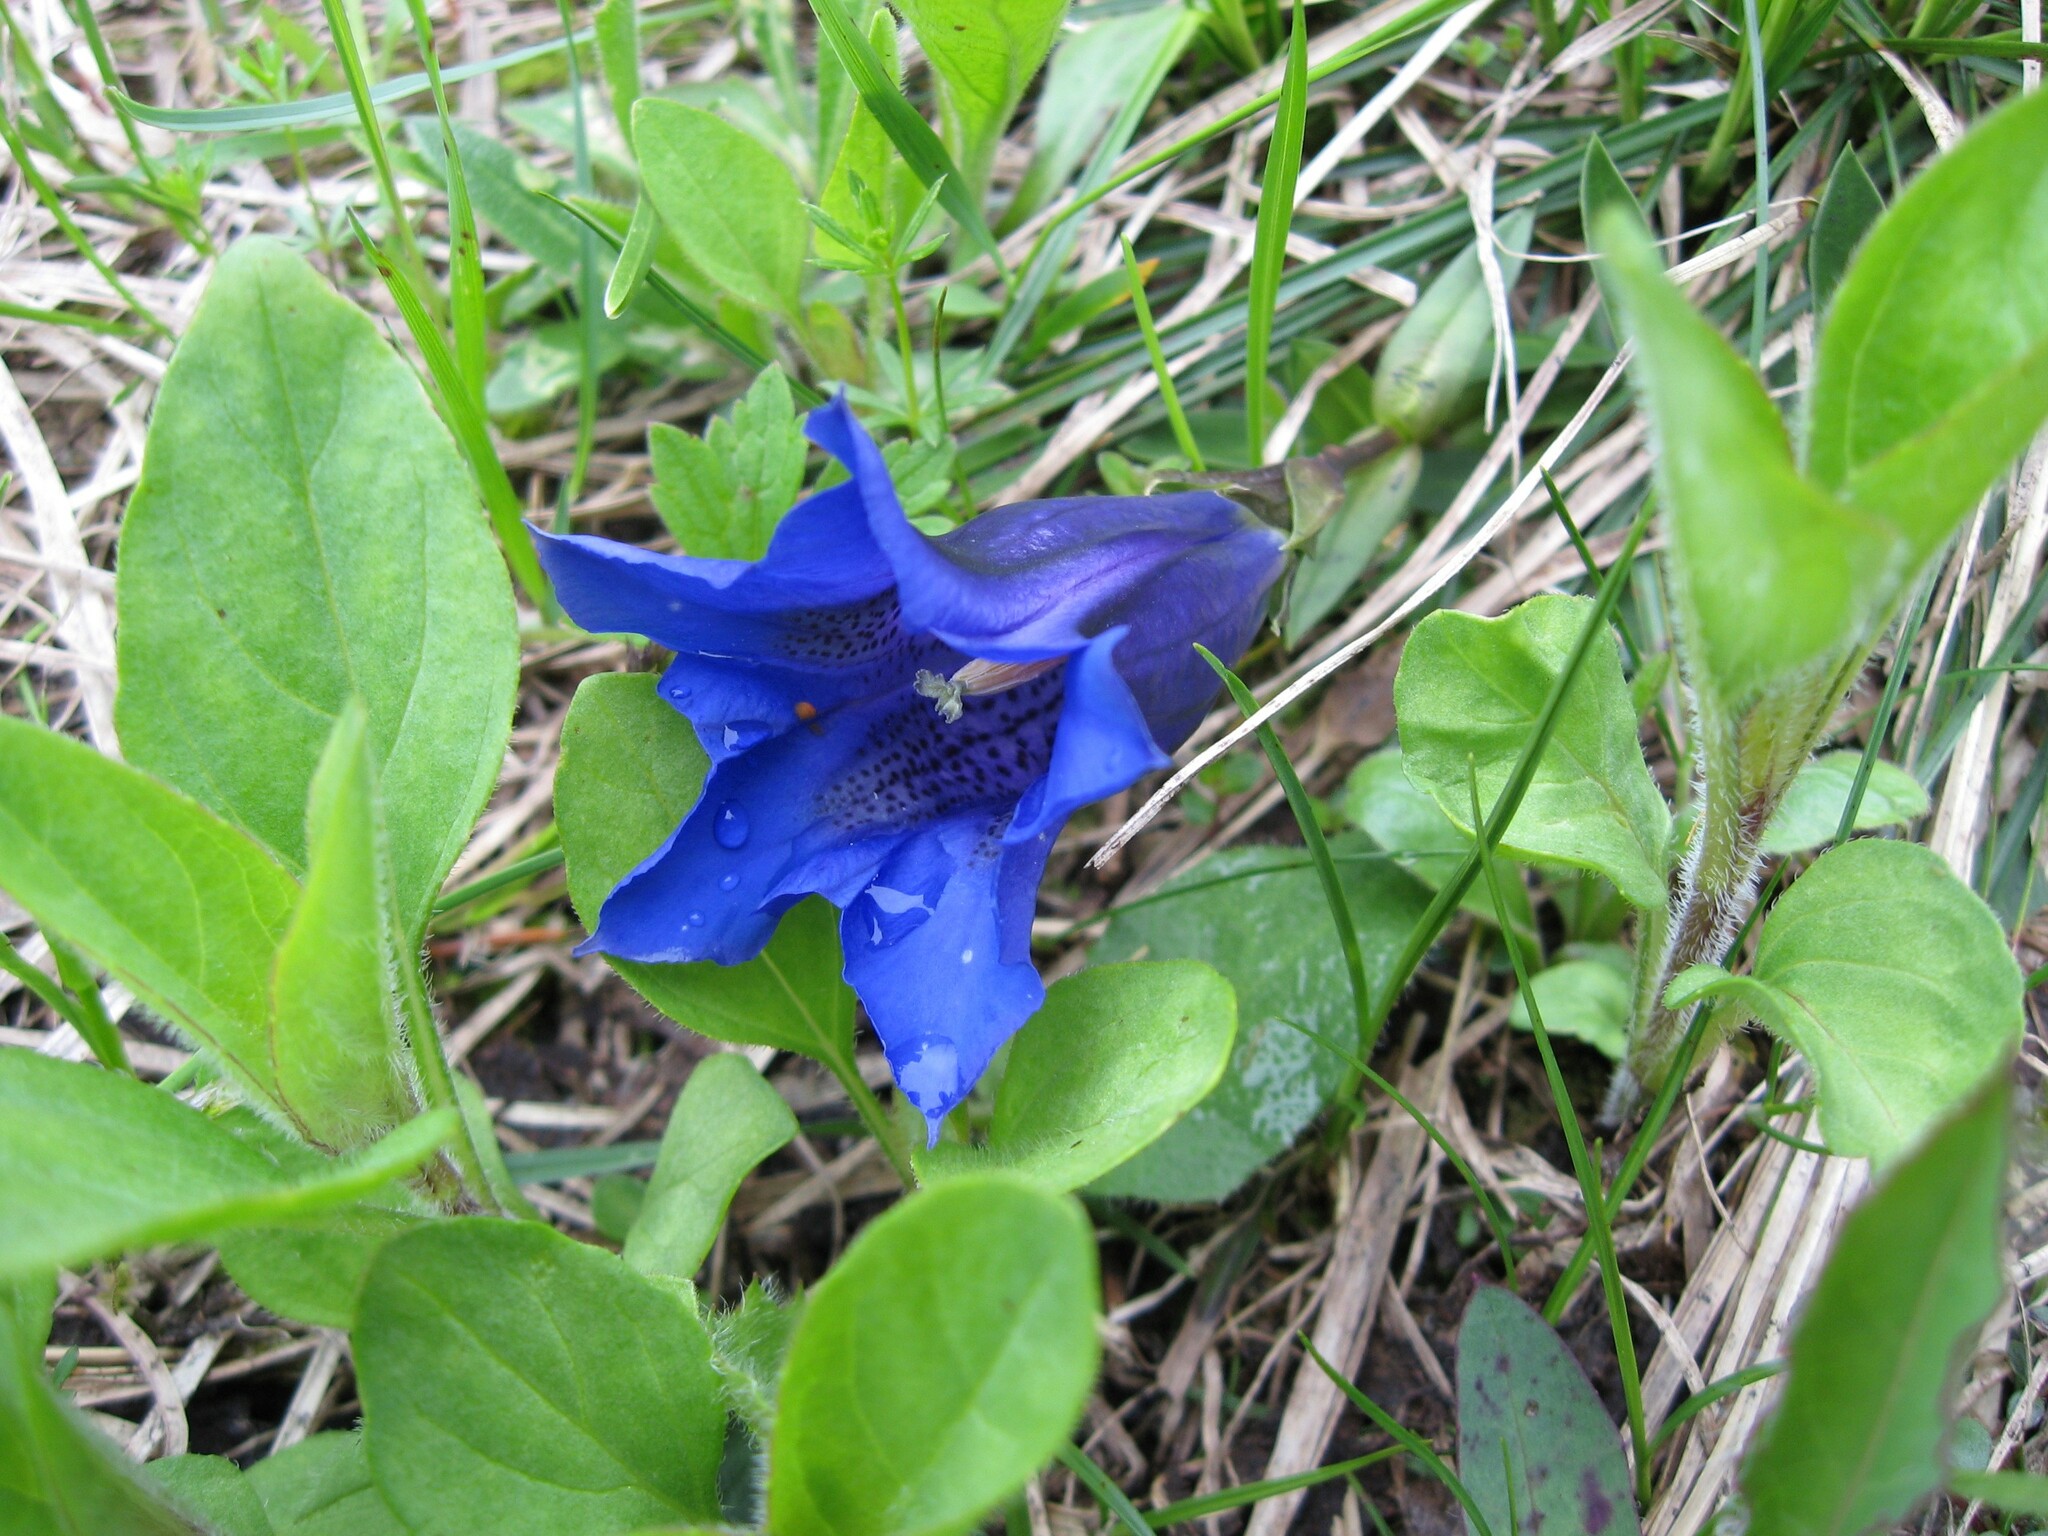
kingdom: Plantae
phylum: Tracheophyta
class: Magnoliopsida
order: Gentianales
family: Gentianaceae
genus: Gentiana
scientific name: Gentiana clusii
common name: Trumpet gentian
